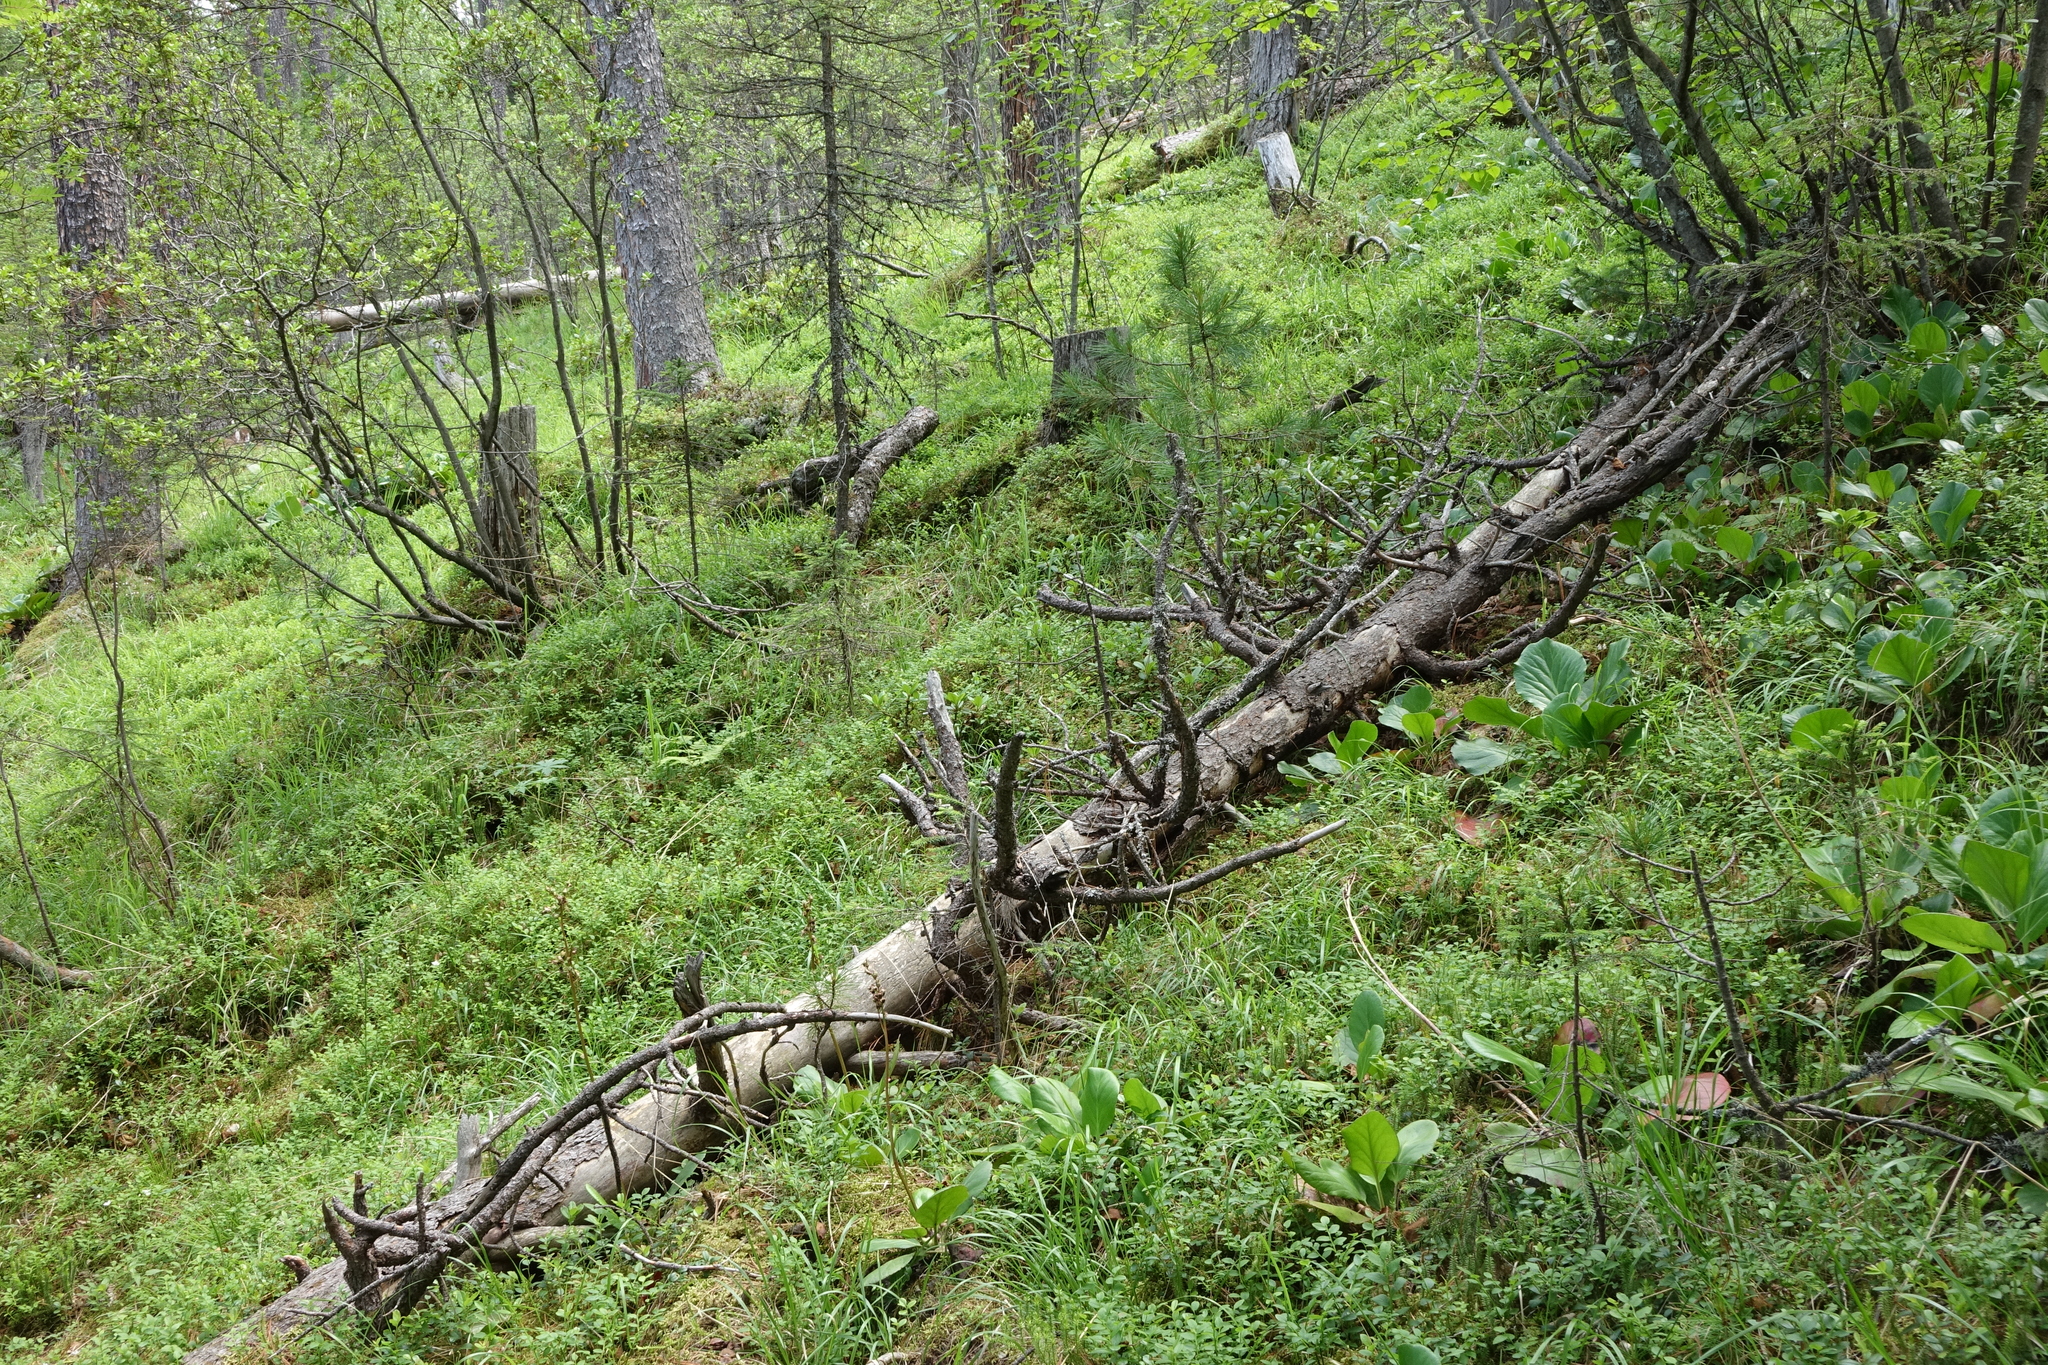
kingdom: Plantae
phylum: Tracheophyta
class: Magnoliopsida
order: Ericales
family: Ericaceae
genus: Vaccinium
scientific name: Vaccinium myrtillus
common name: Bilberry
